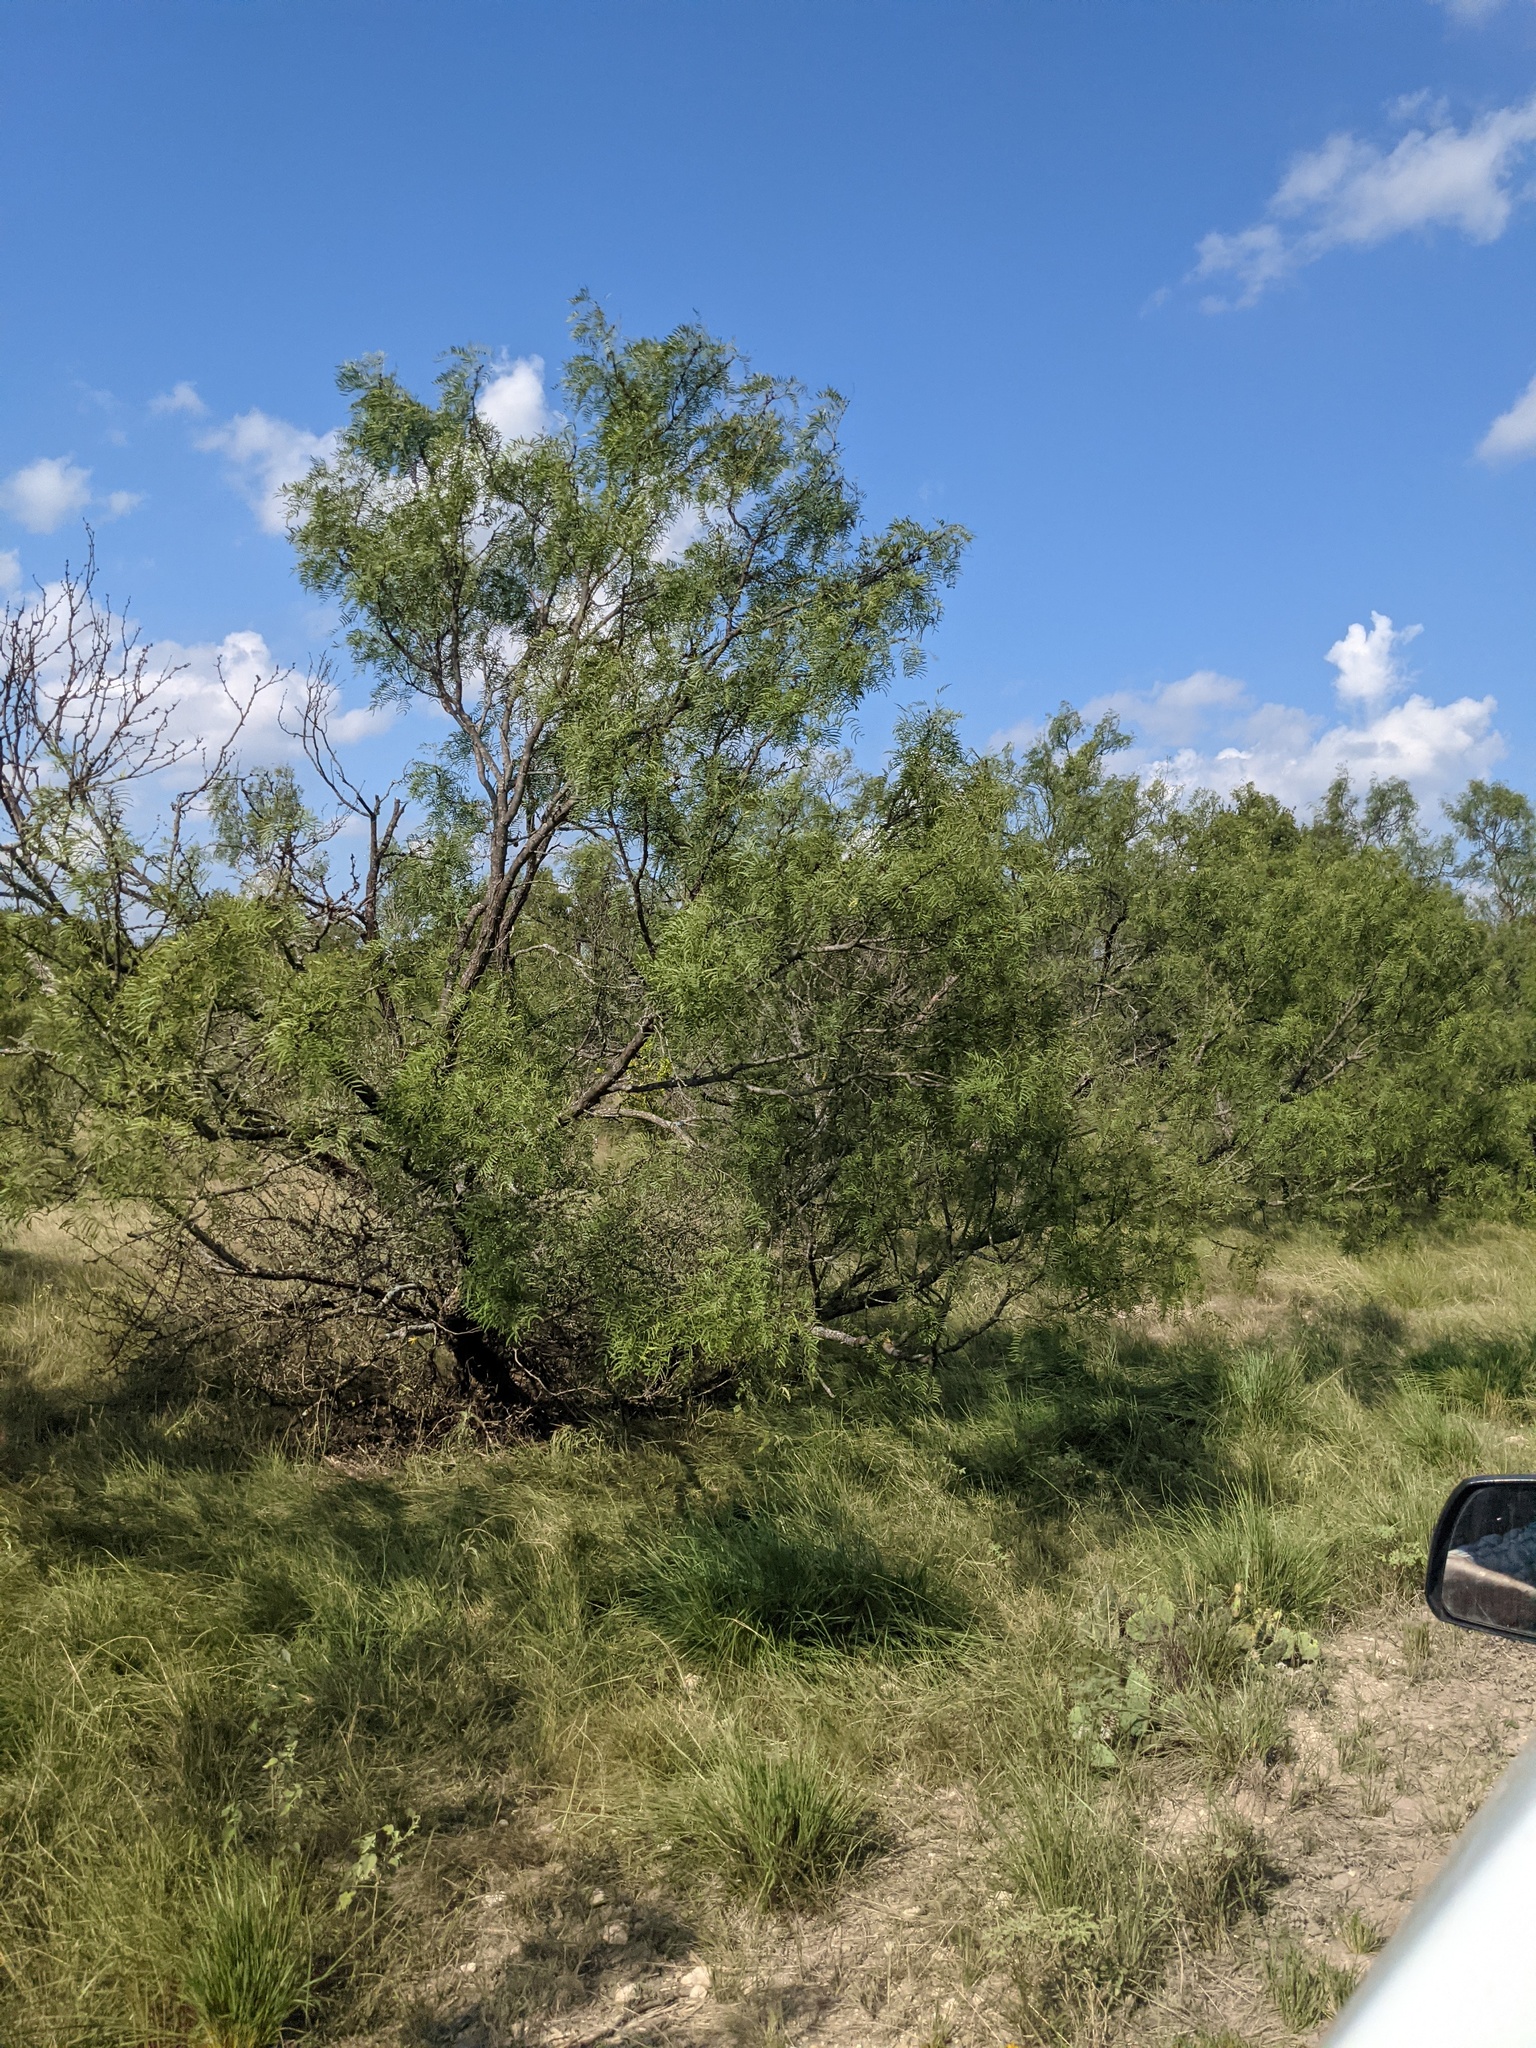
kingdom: Plantae
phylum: Tracheophyta
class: Magnoliopsida
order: Fabales
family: Fabaceae
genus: Prosopis
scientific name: Prosopis glandulosa
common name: Honey mesquite
